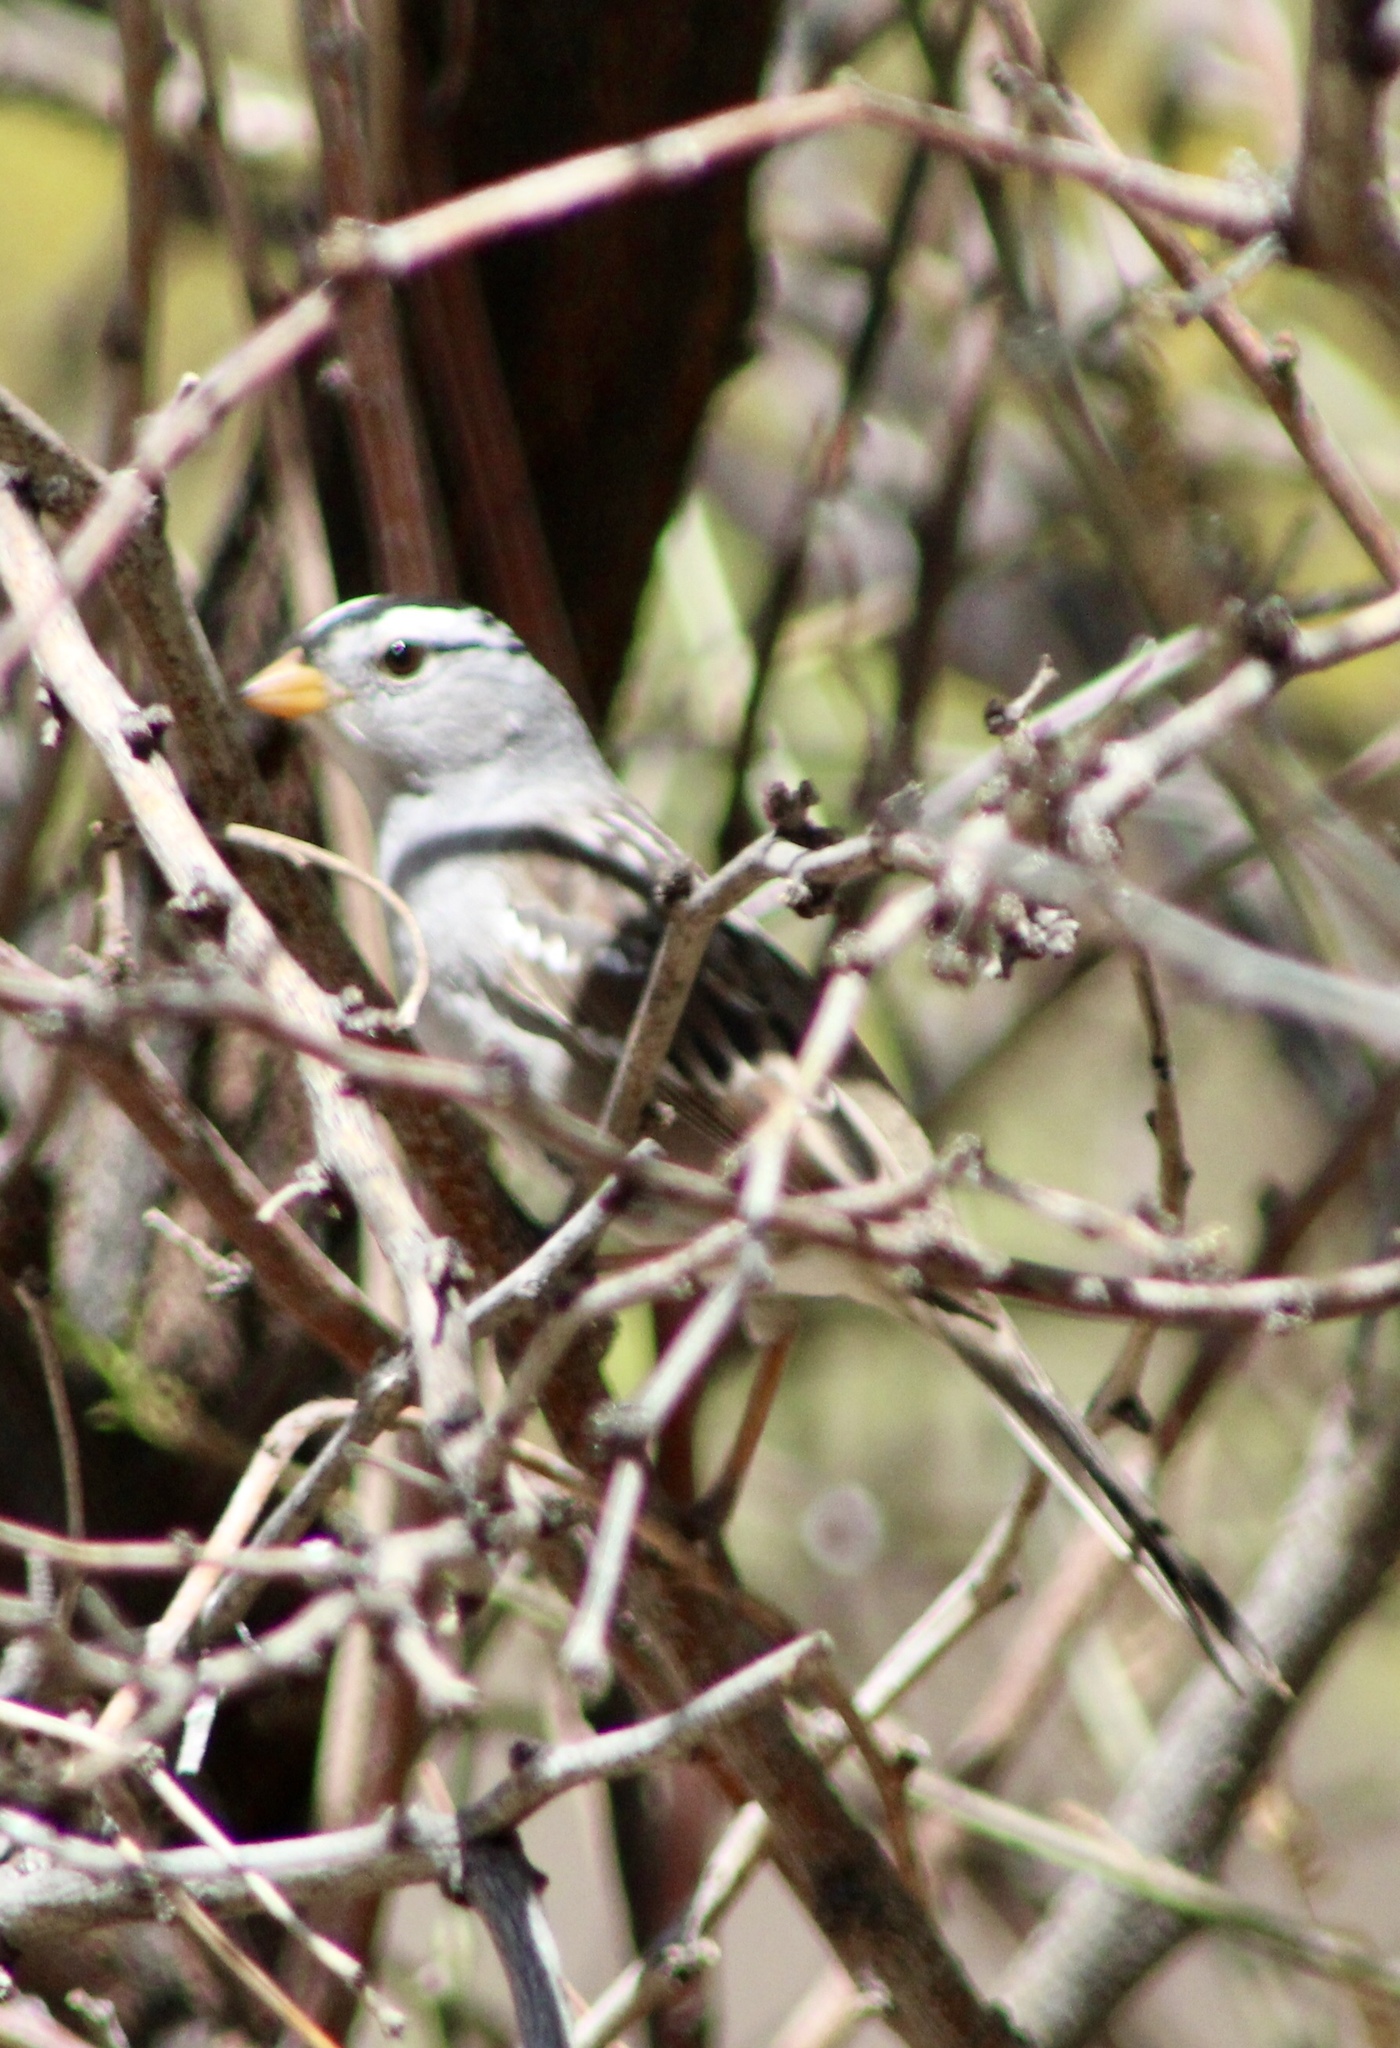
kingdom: Animalia
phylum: Chordata
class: Aves
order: Passeriformes
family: Passerellidae
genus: Zonotrichia
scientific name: Zonotrichia leucophrys
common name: White-crowned sparrow
